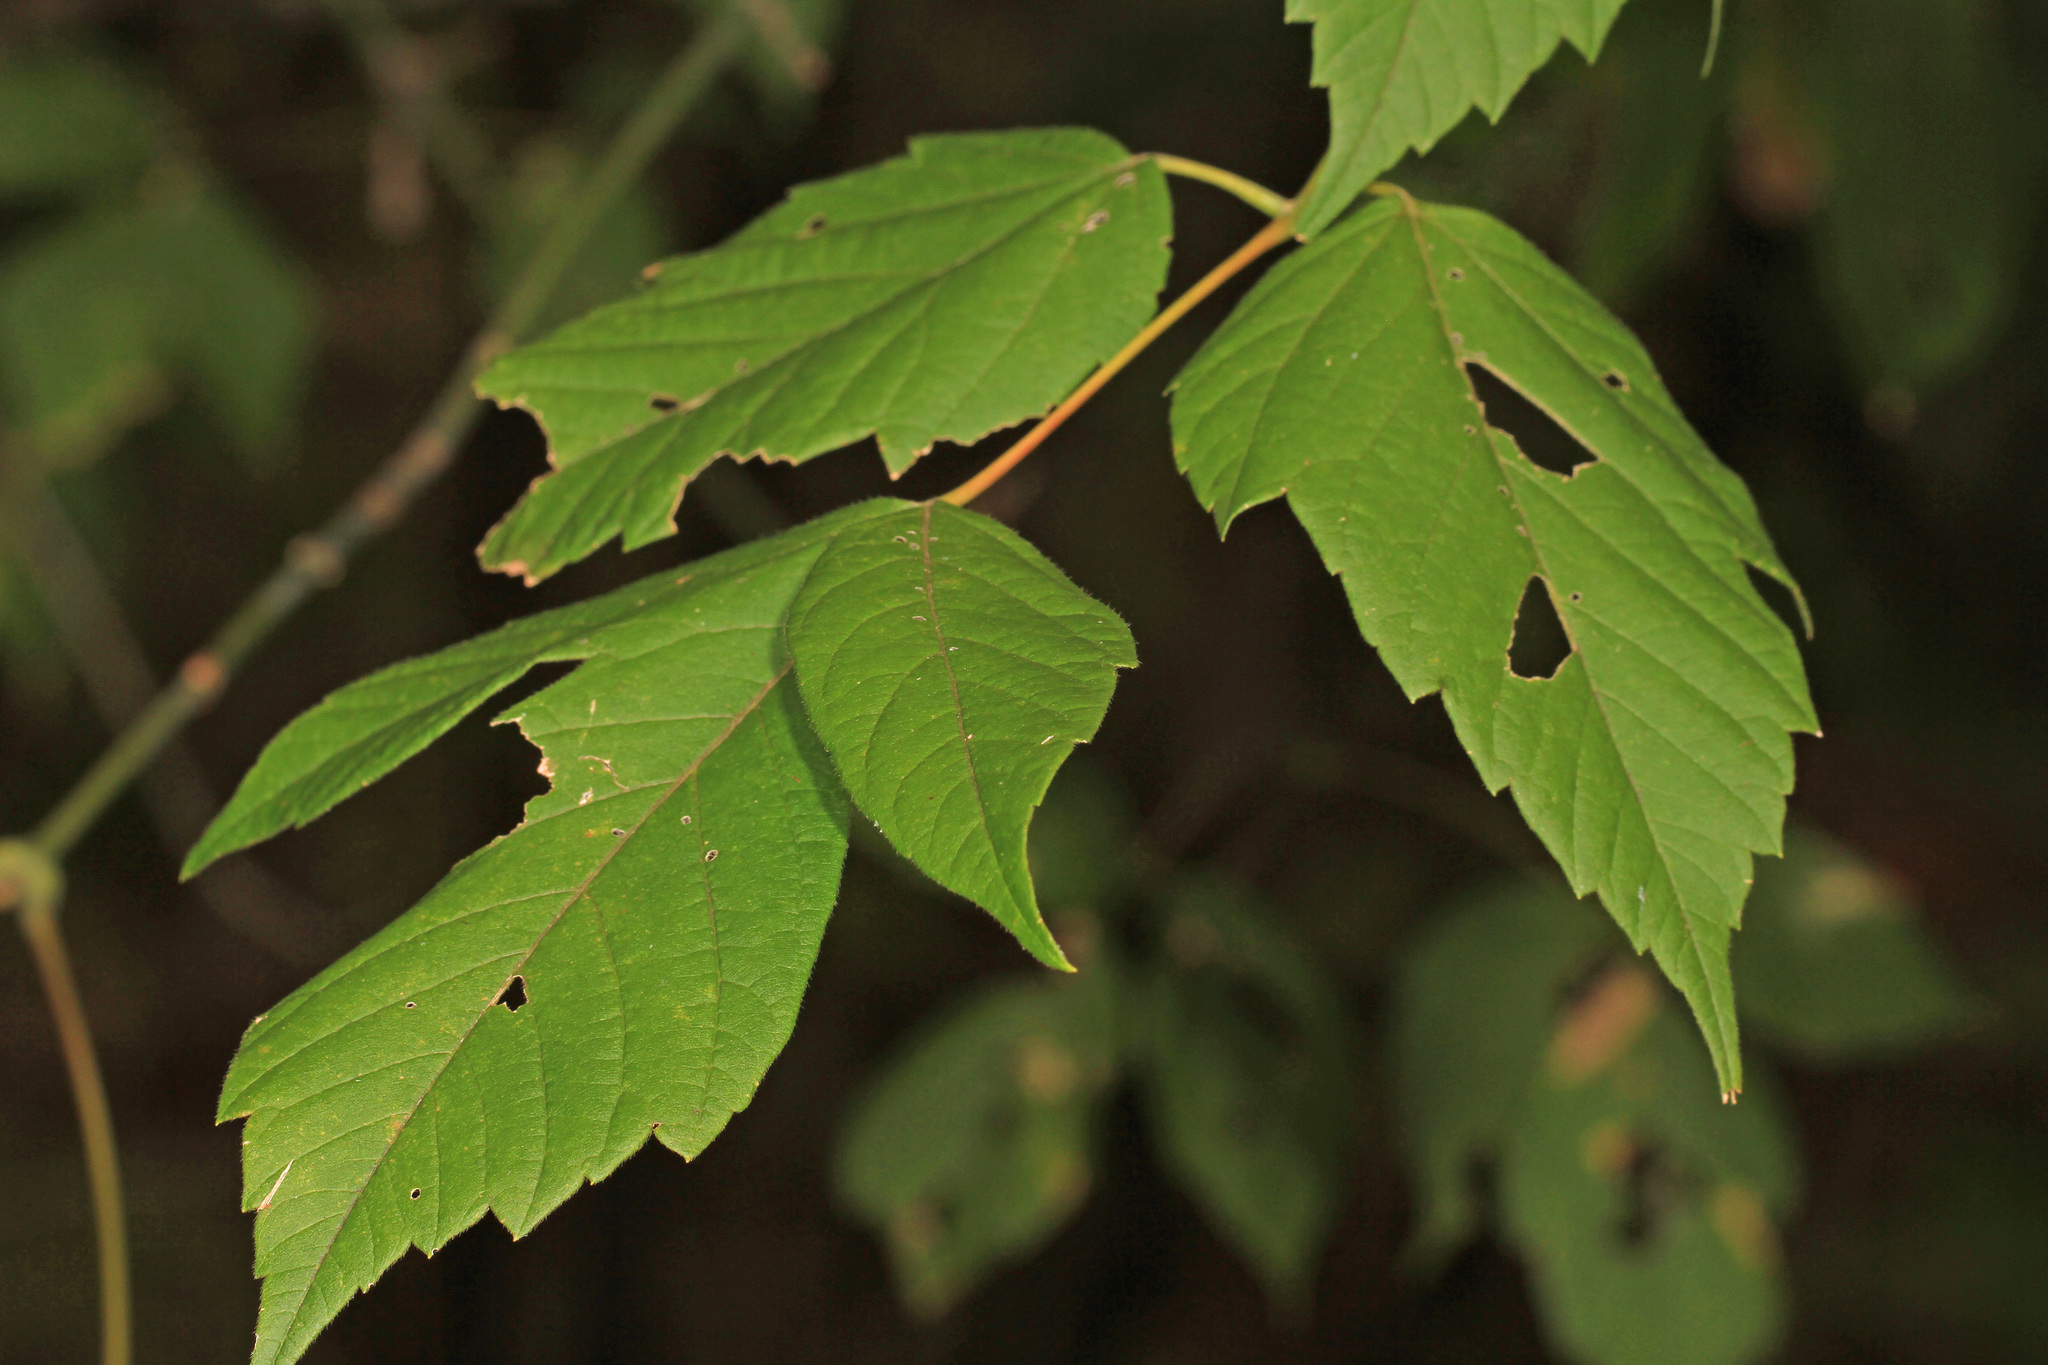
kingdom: Plantae
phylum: Tracheophyta
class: Magnoliopsida
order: Sapindales
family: Sapindaceae
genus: Acer
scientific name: Acer negundo
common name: Ashleaf maple
